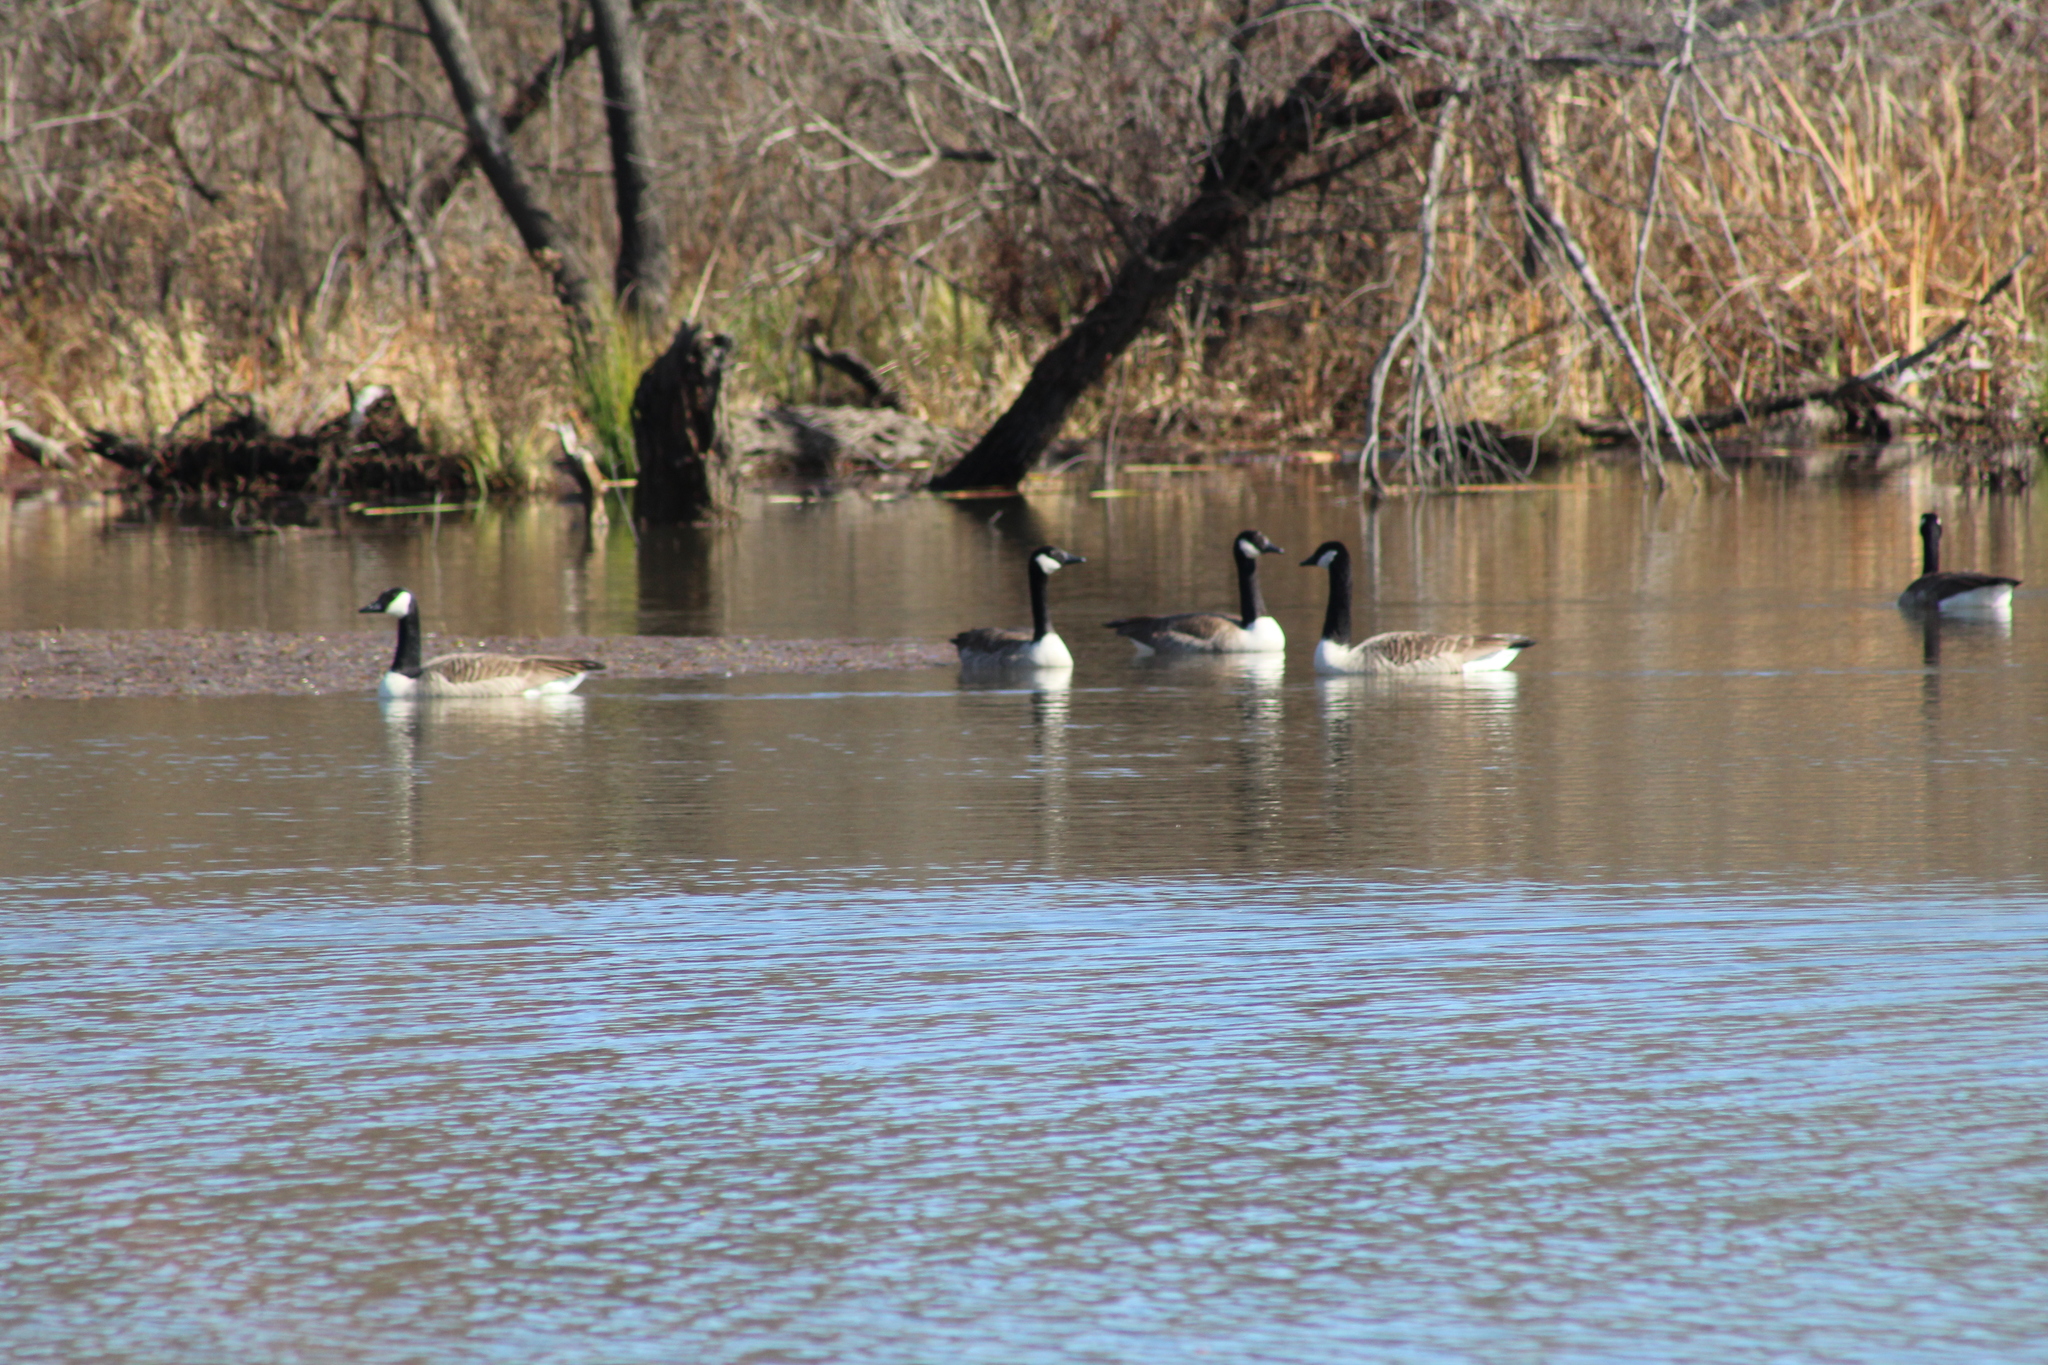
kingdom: Animalia
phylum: Chordata
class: Aves
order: Anseriformes
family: Anatidae
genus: Branta
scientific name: Branta canadensis
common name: Canada goose
